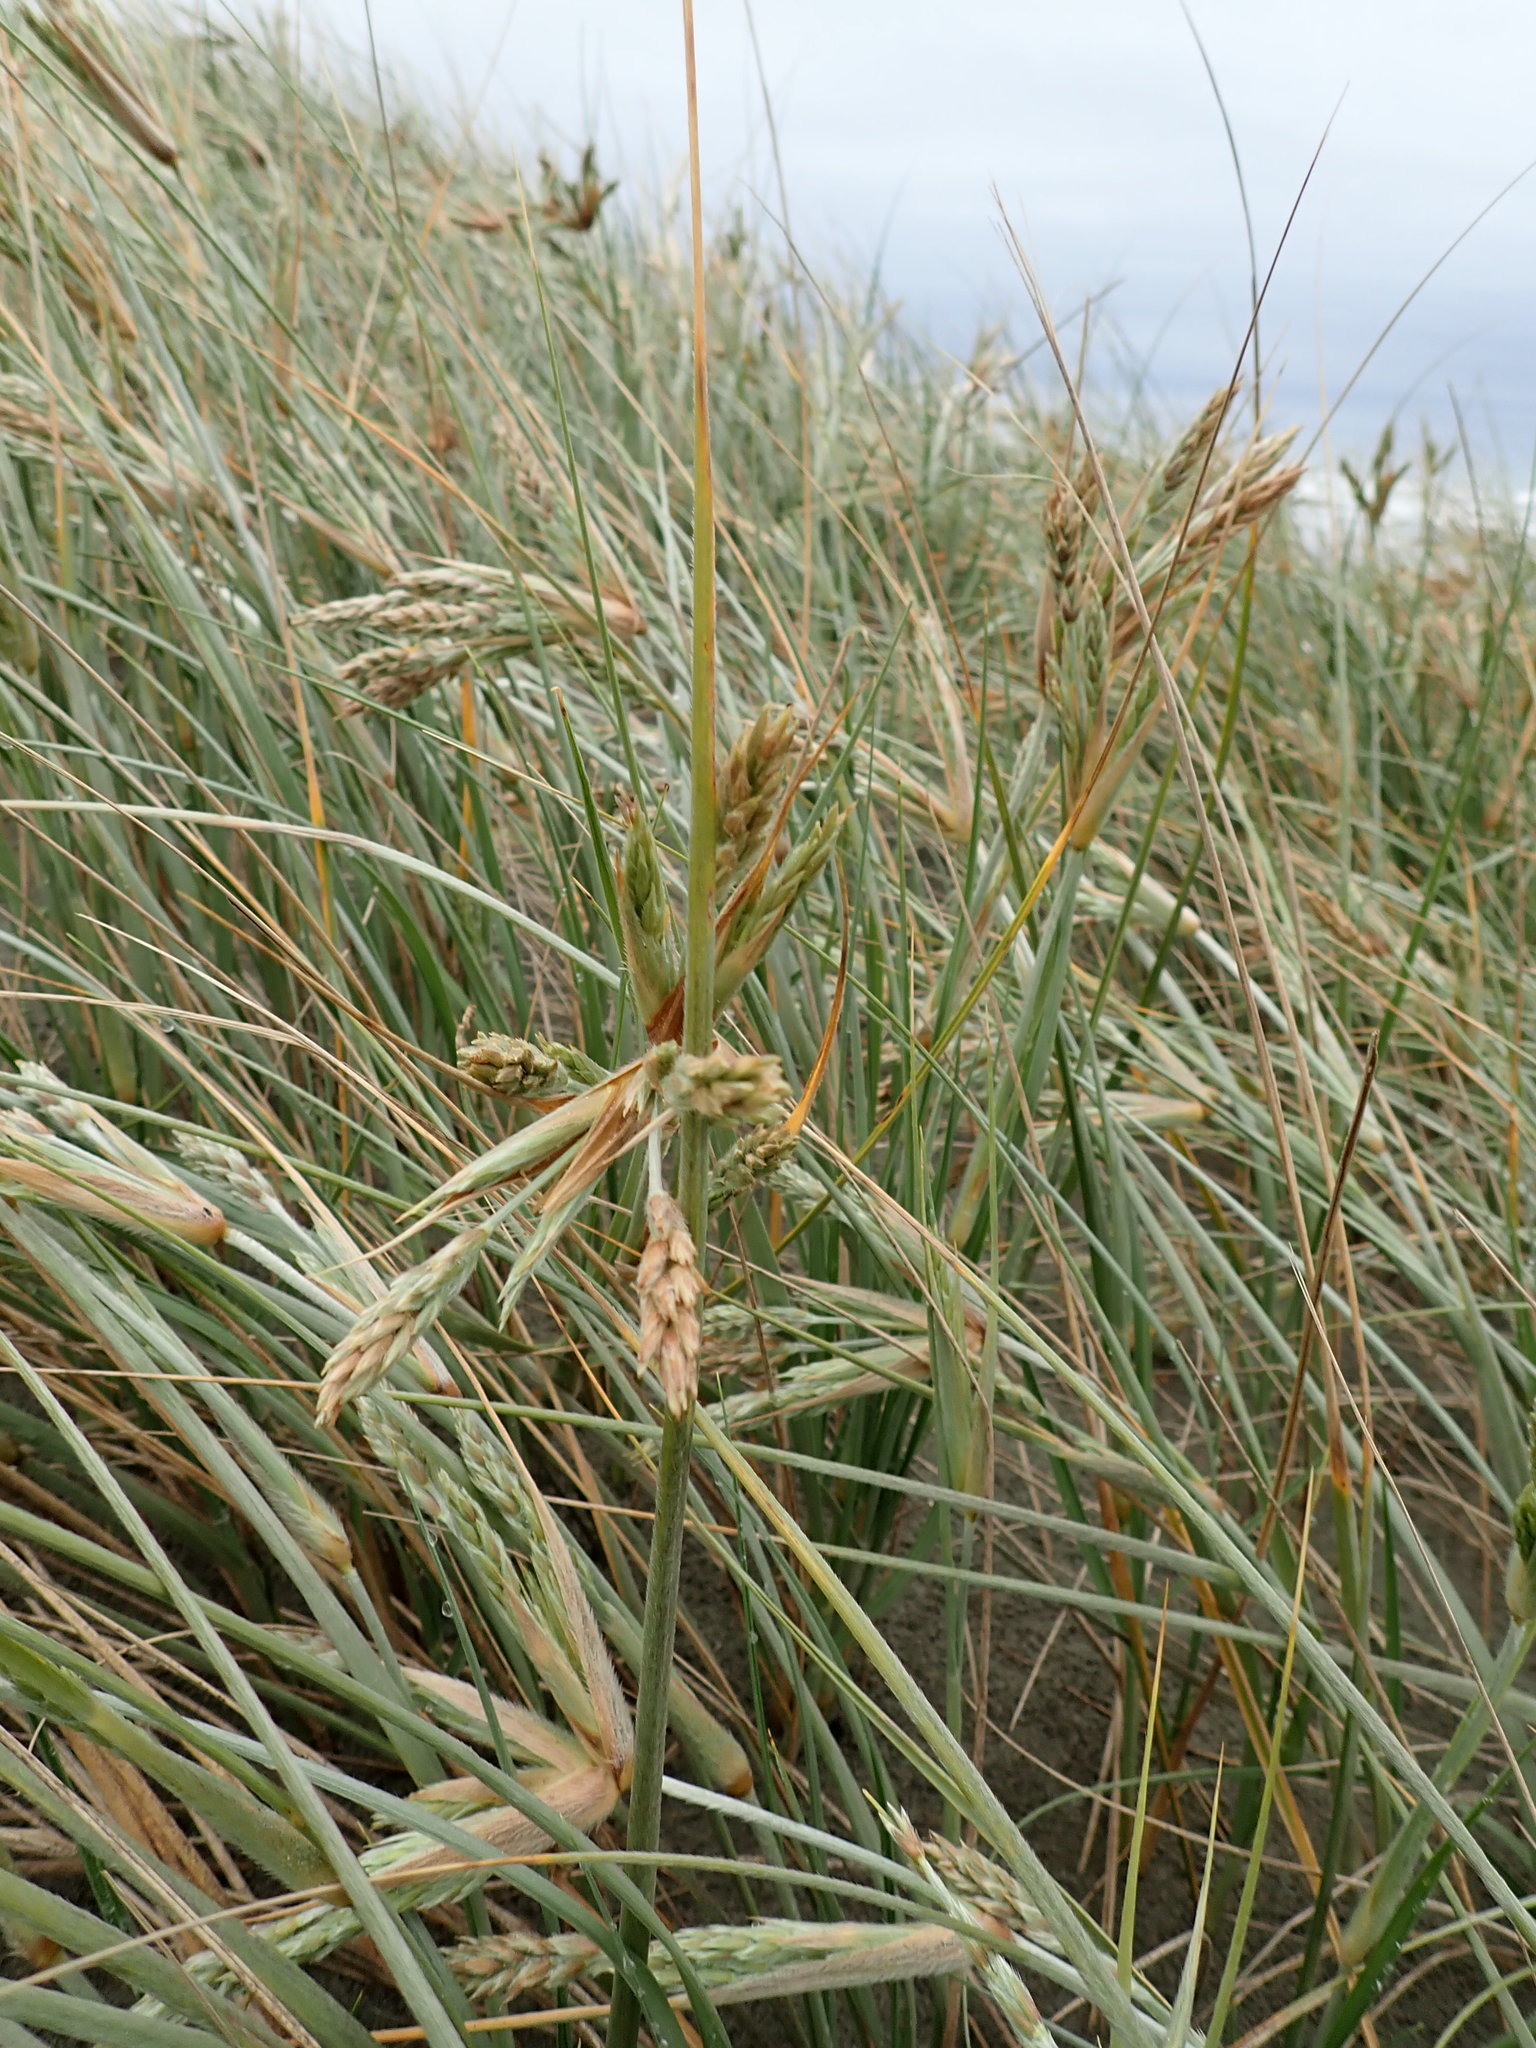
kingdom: Plantae
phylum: Tracheophyta
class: Liliopsida
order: Poales
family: Poaceae
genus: Spinifex
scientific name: Spinifex sericeus
